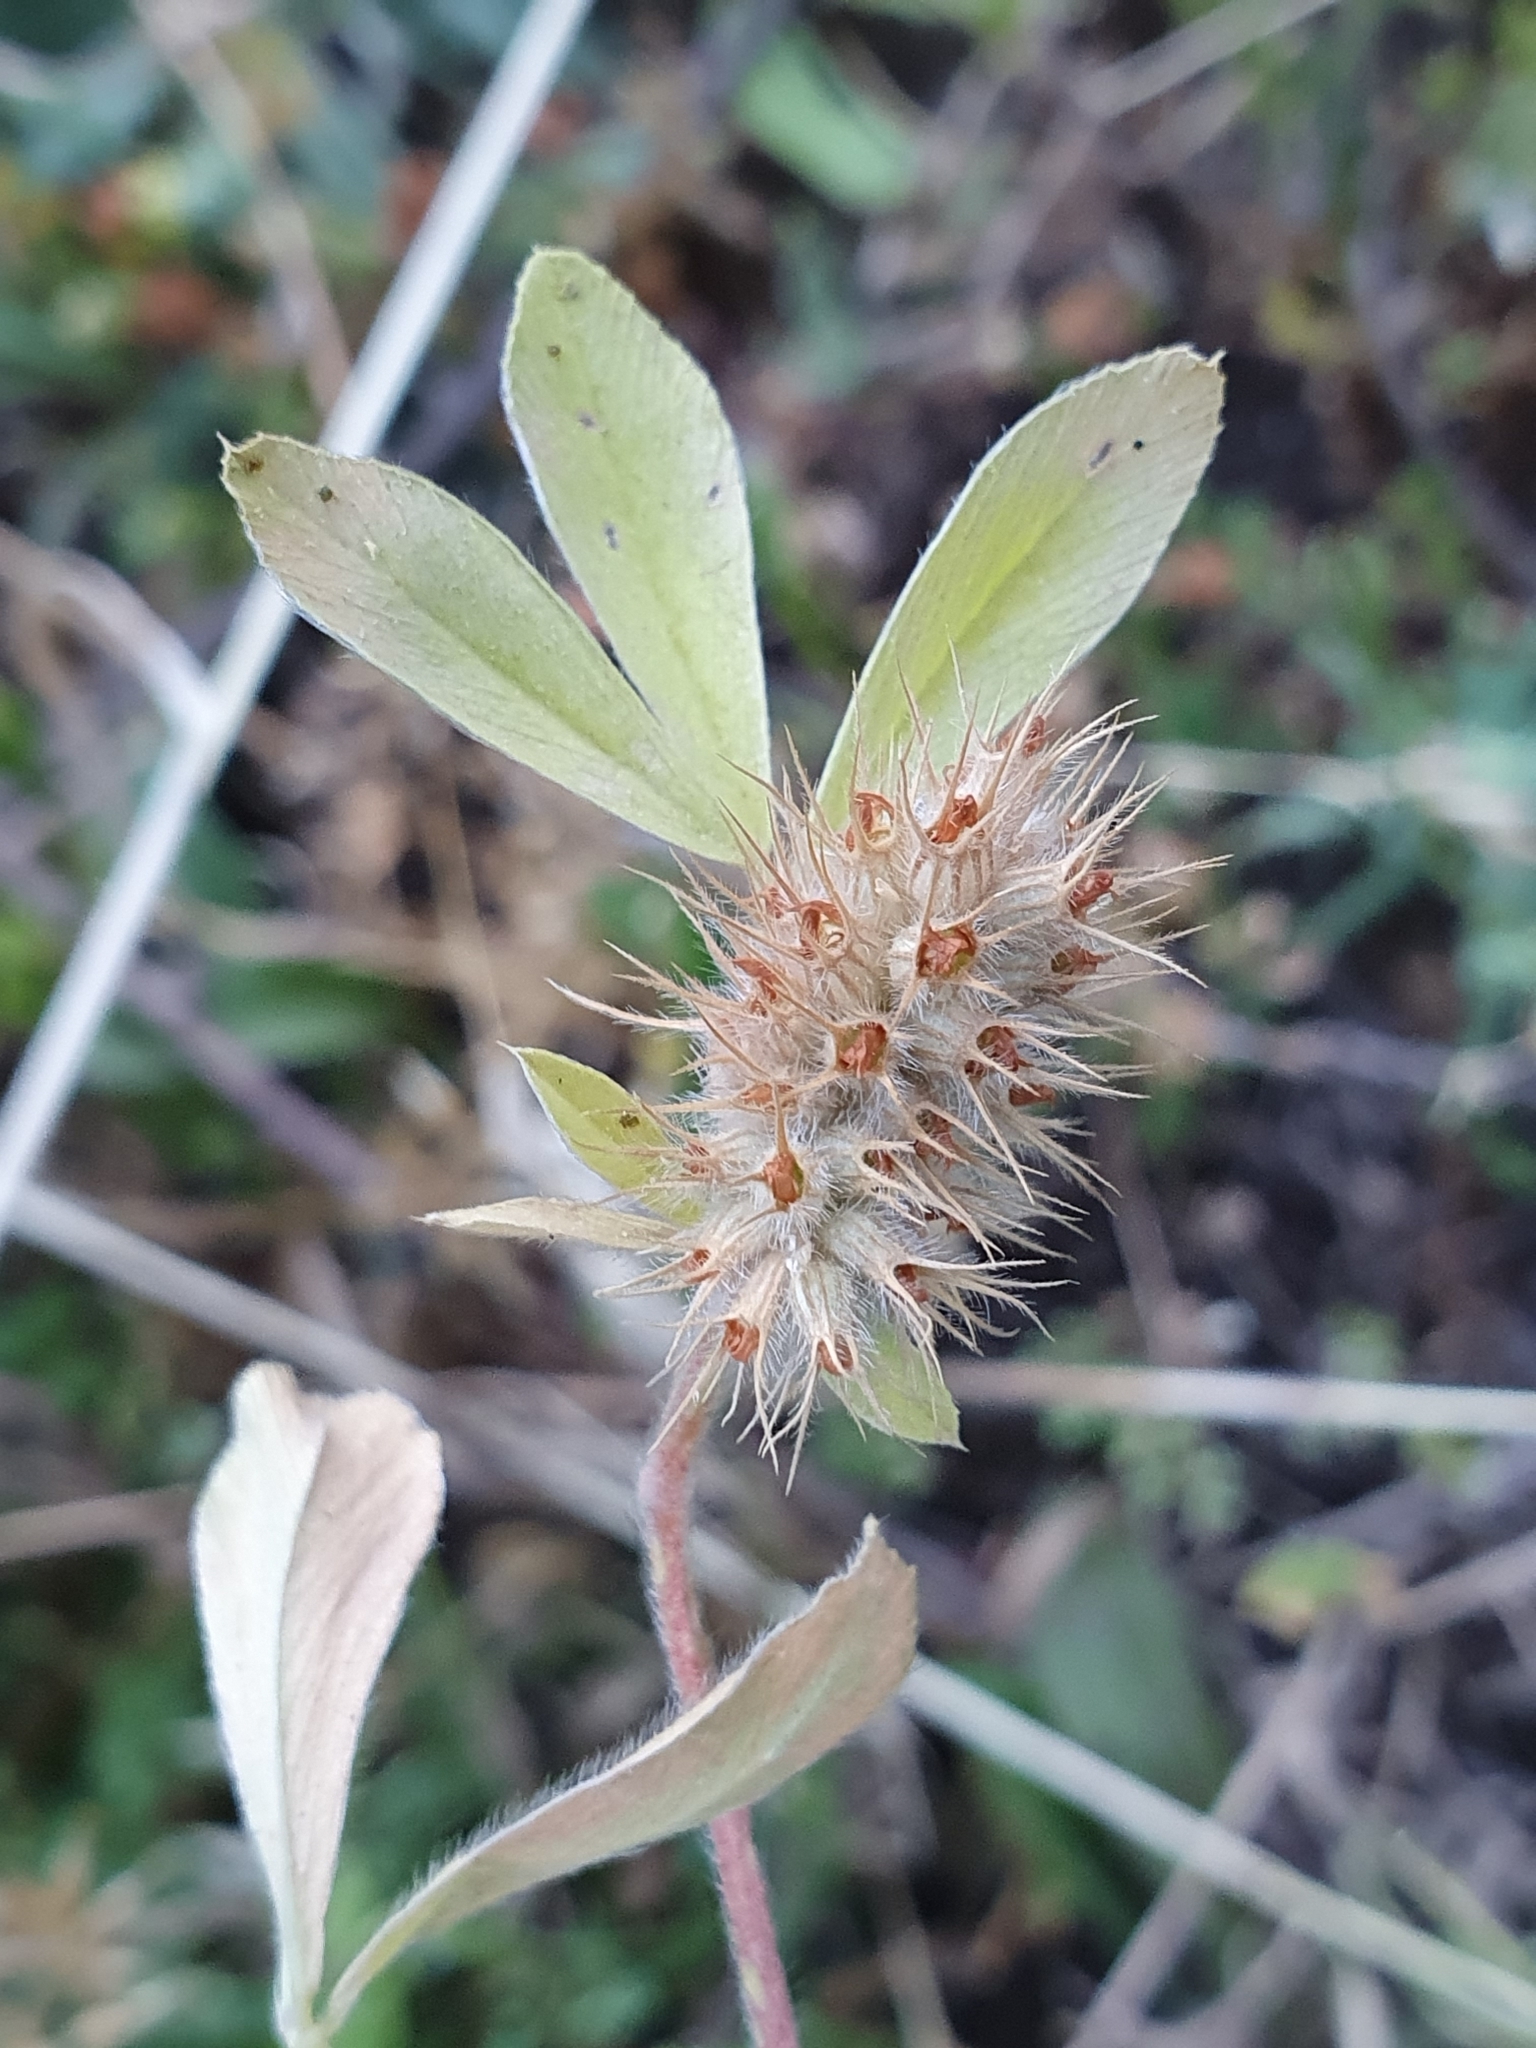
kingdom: Plantae
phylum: Tracheophyta
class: Magnoliopsida
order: Fabales
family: Fabaceae
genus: Trifolium
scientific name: Trifolium striatum
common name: Knotted clover
